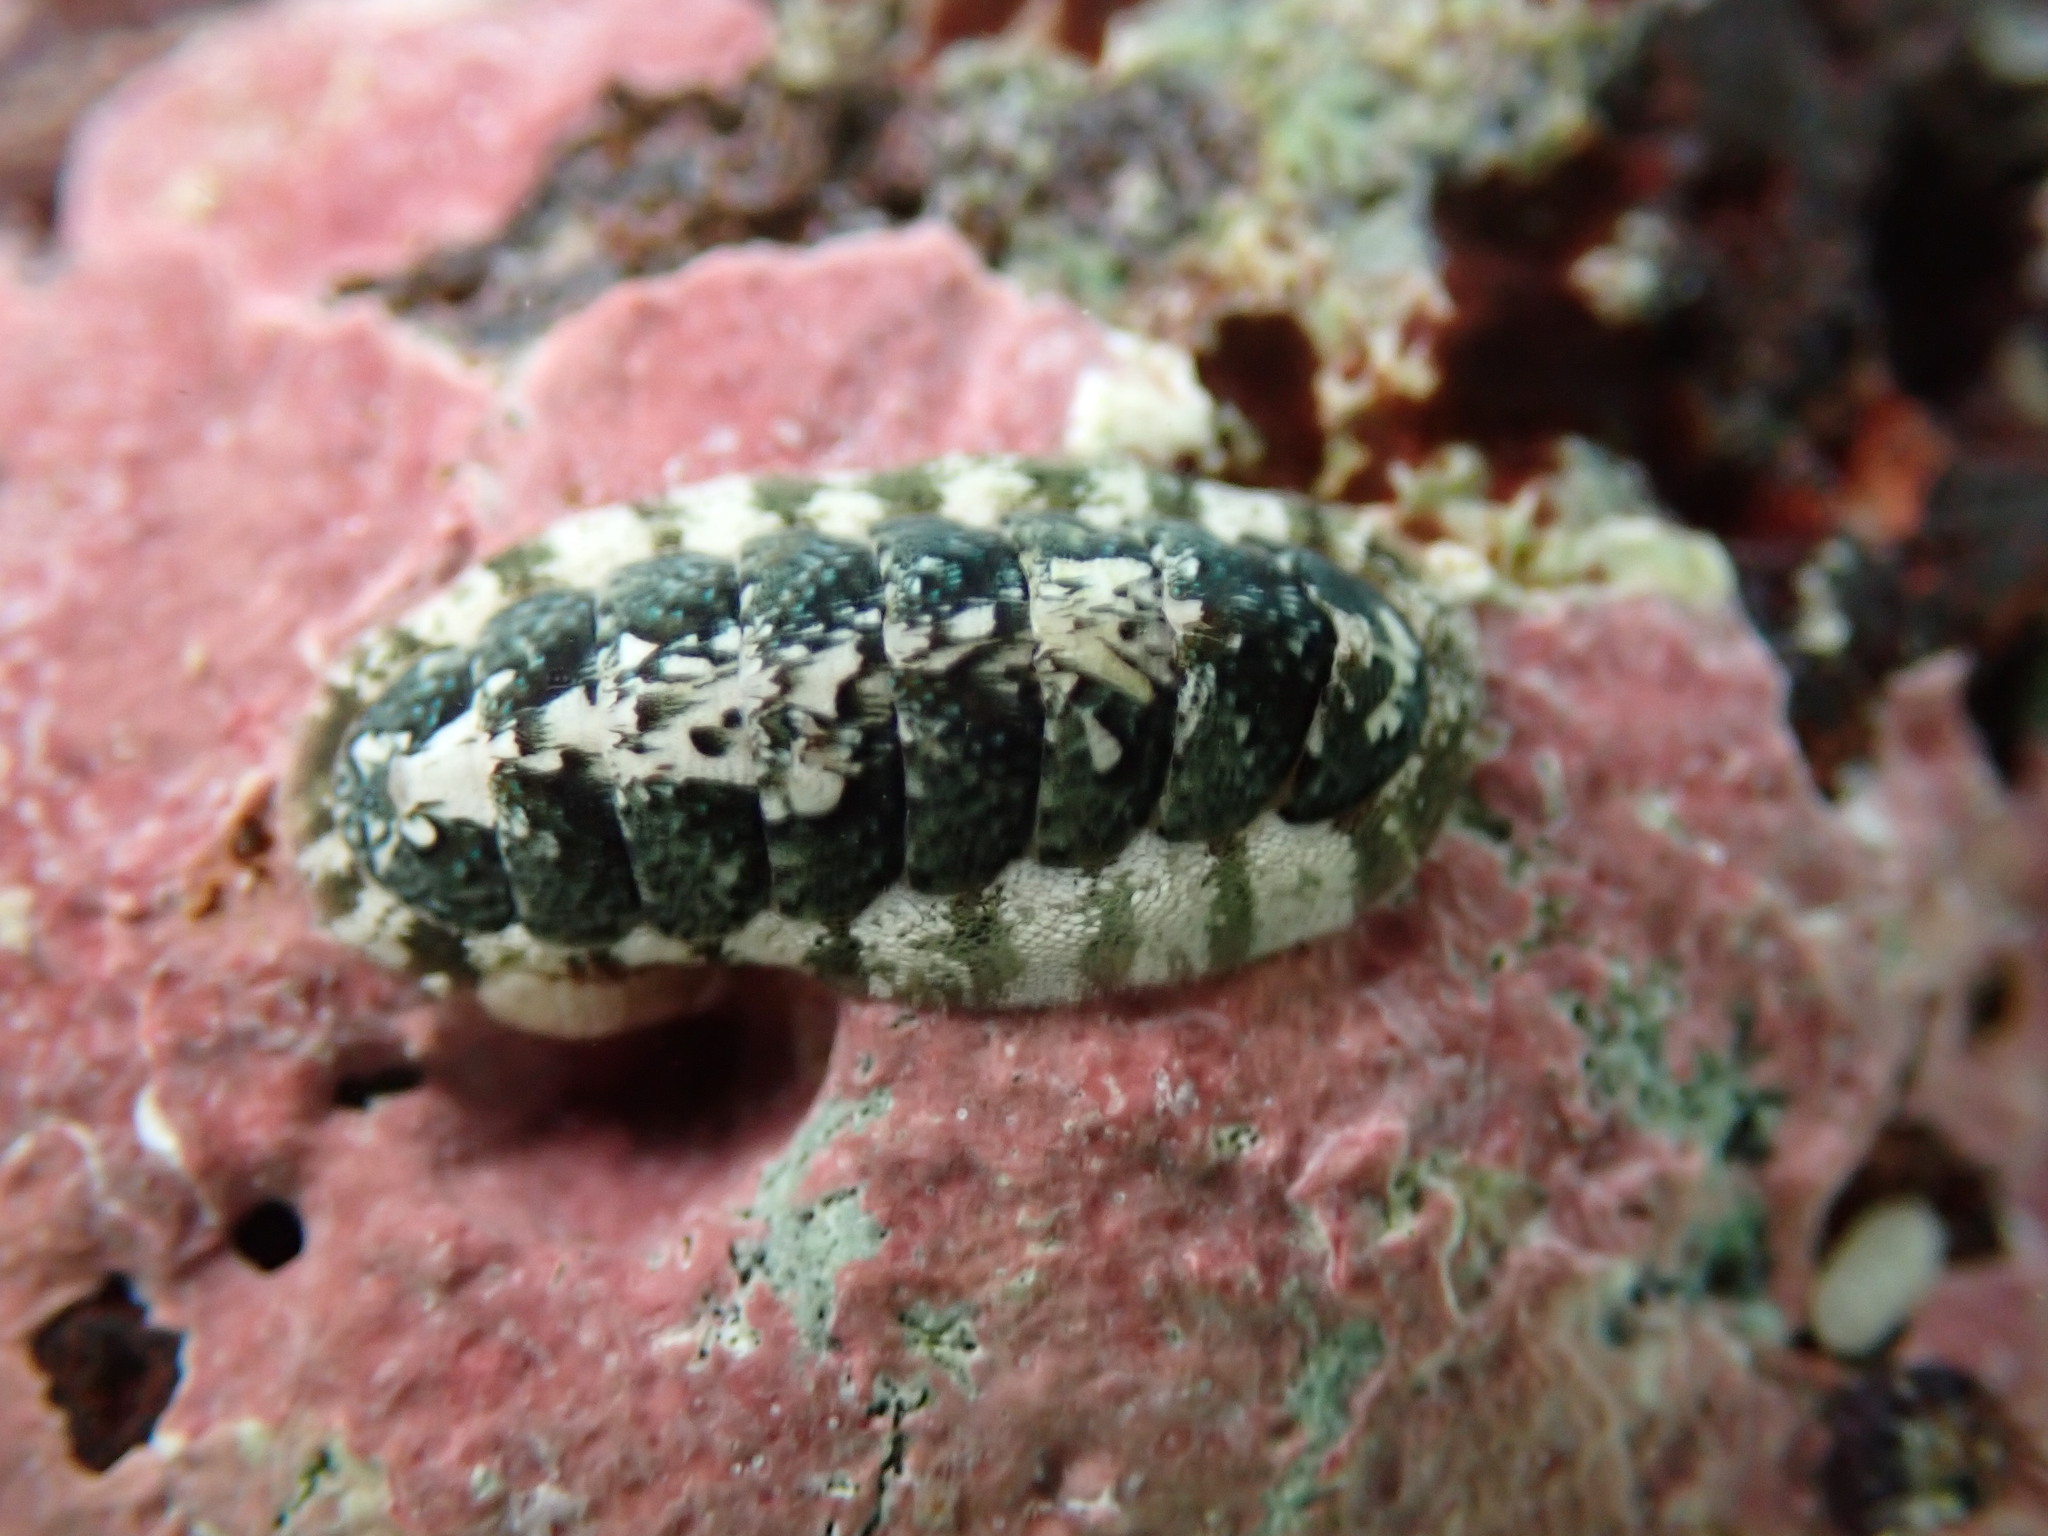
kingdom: Animalia
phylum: Mollusca
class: Polyplacophora
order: Chitonida
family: Ischnochitonidae
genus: Stenoplax
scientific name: Stenoplax petaloides
